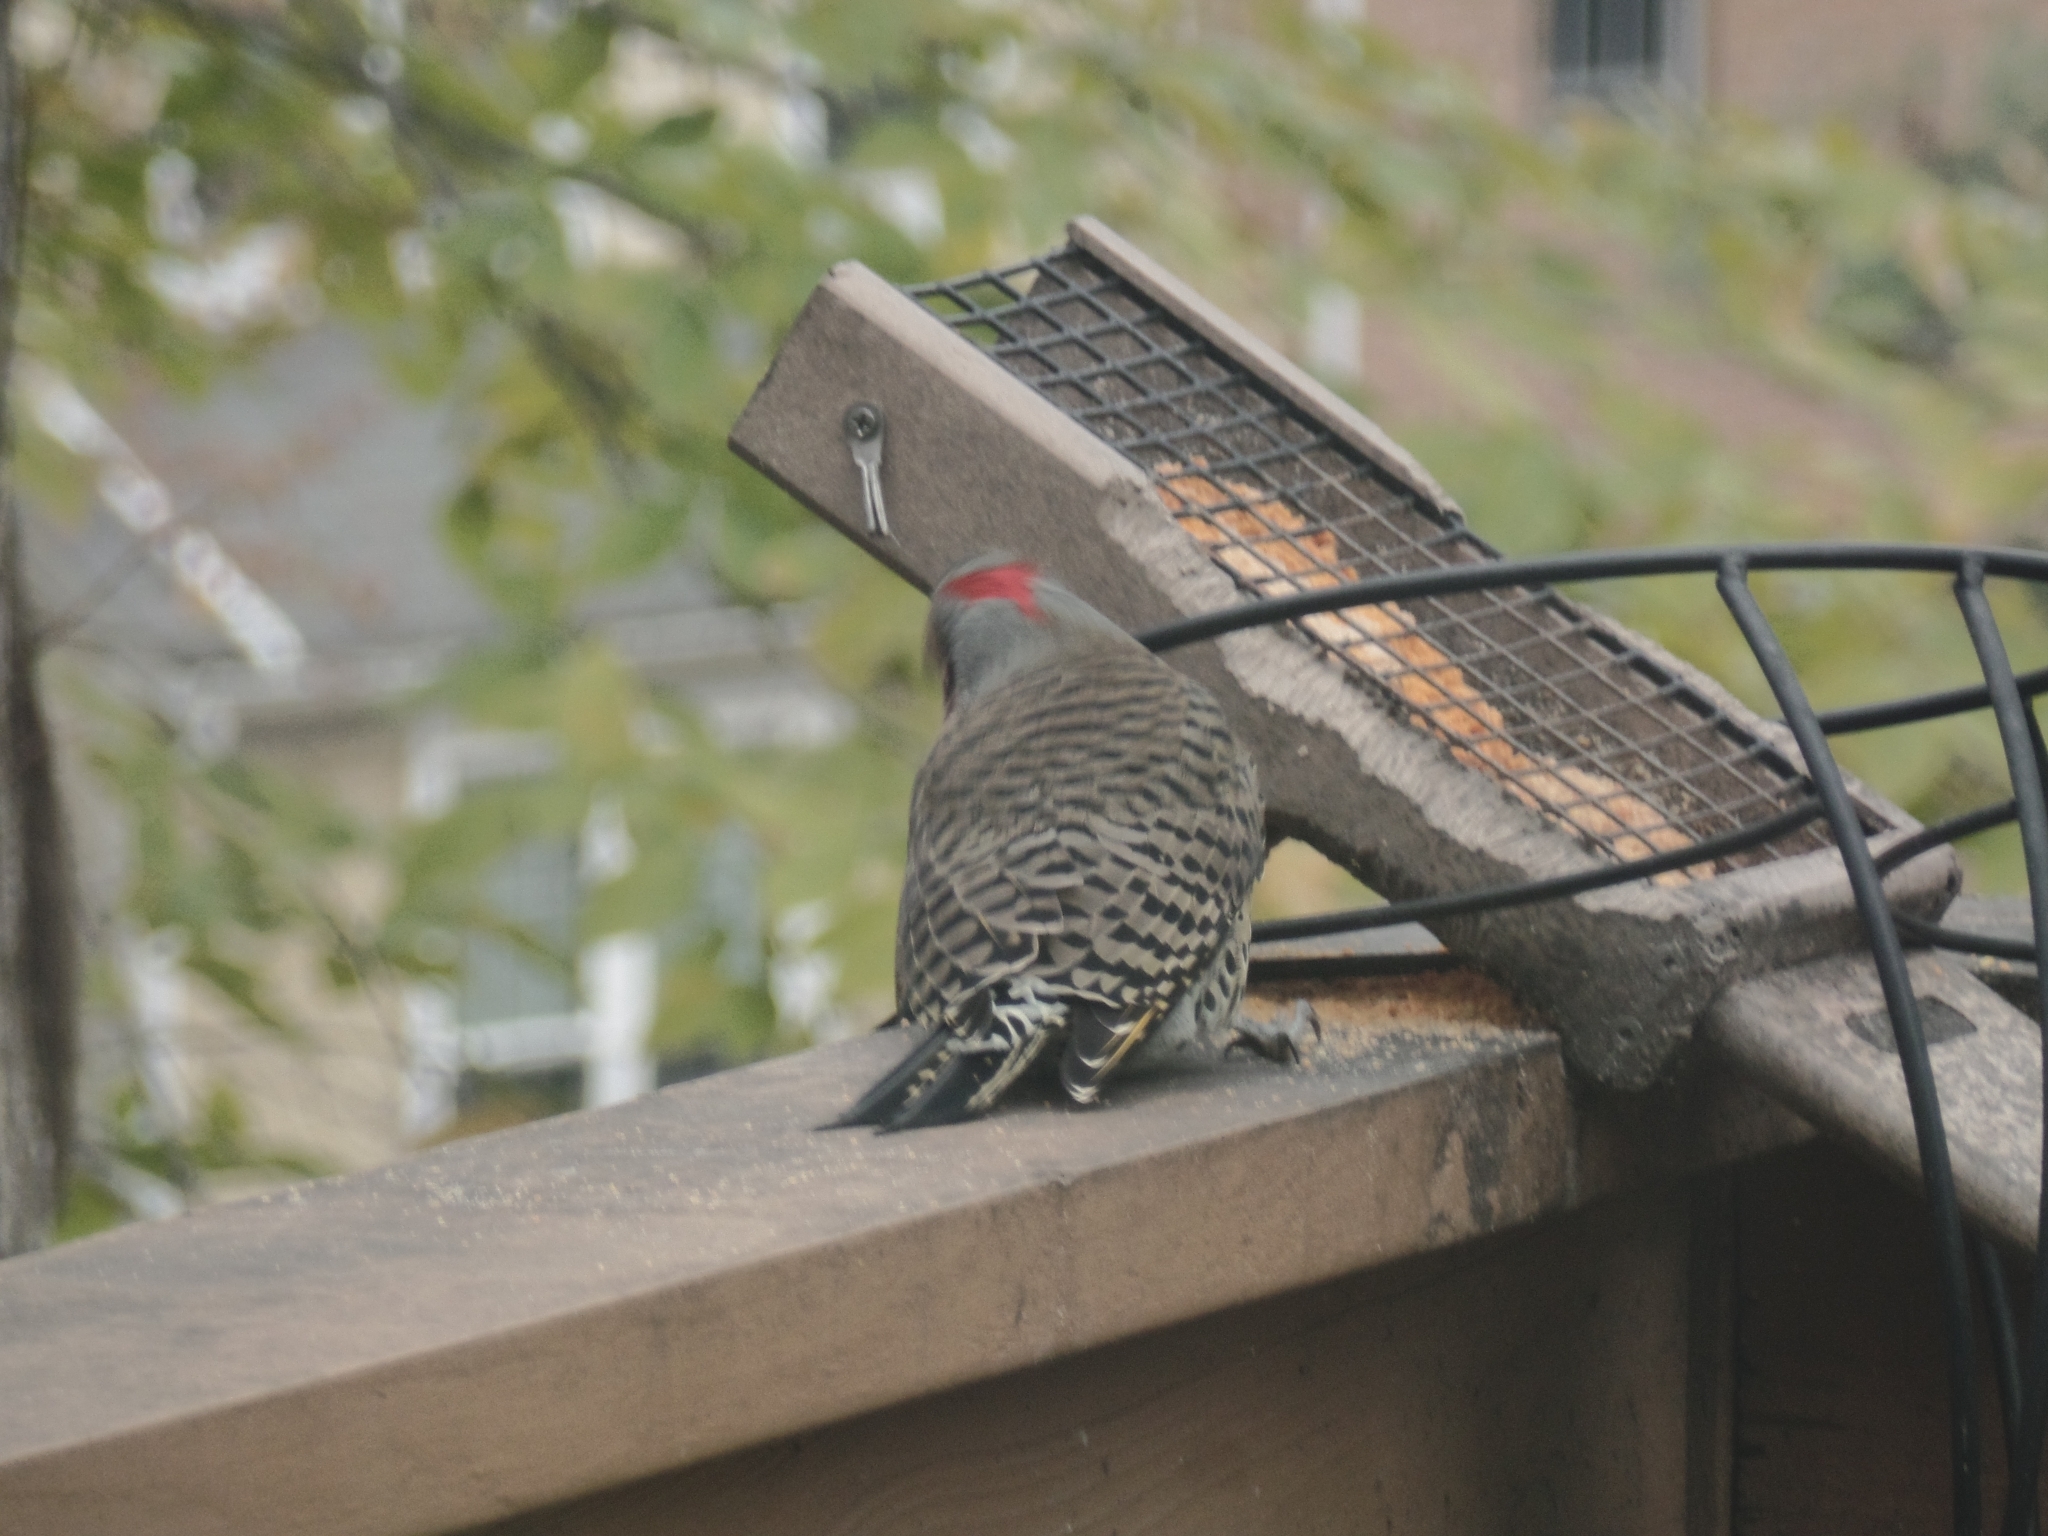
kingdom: Animalia
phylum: Chordata
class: Aves
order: Piciformes
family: Picidae
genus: Colaptes
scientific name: Colaptes auratus
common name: Northern flicker
